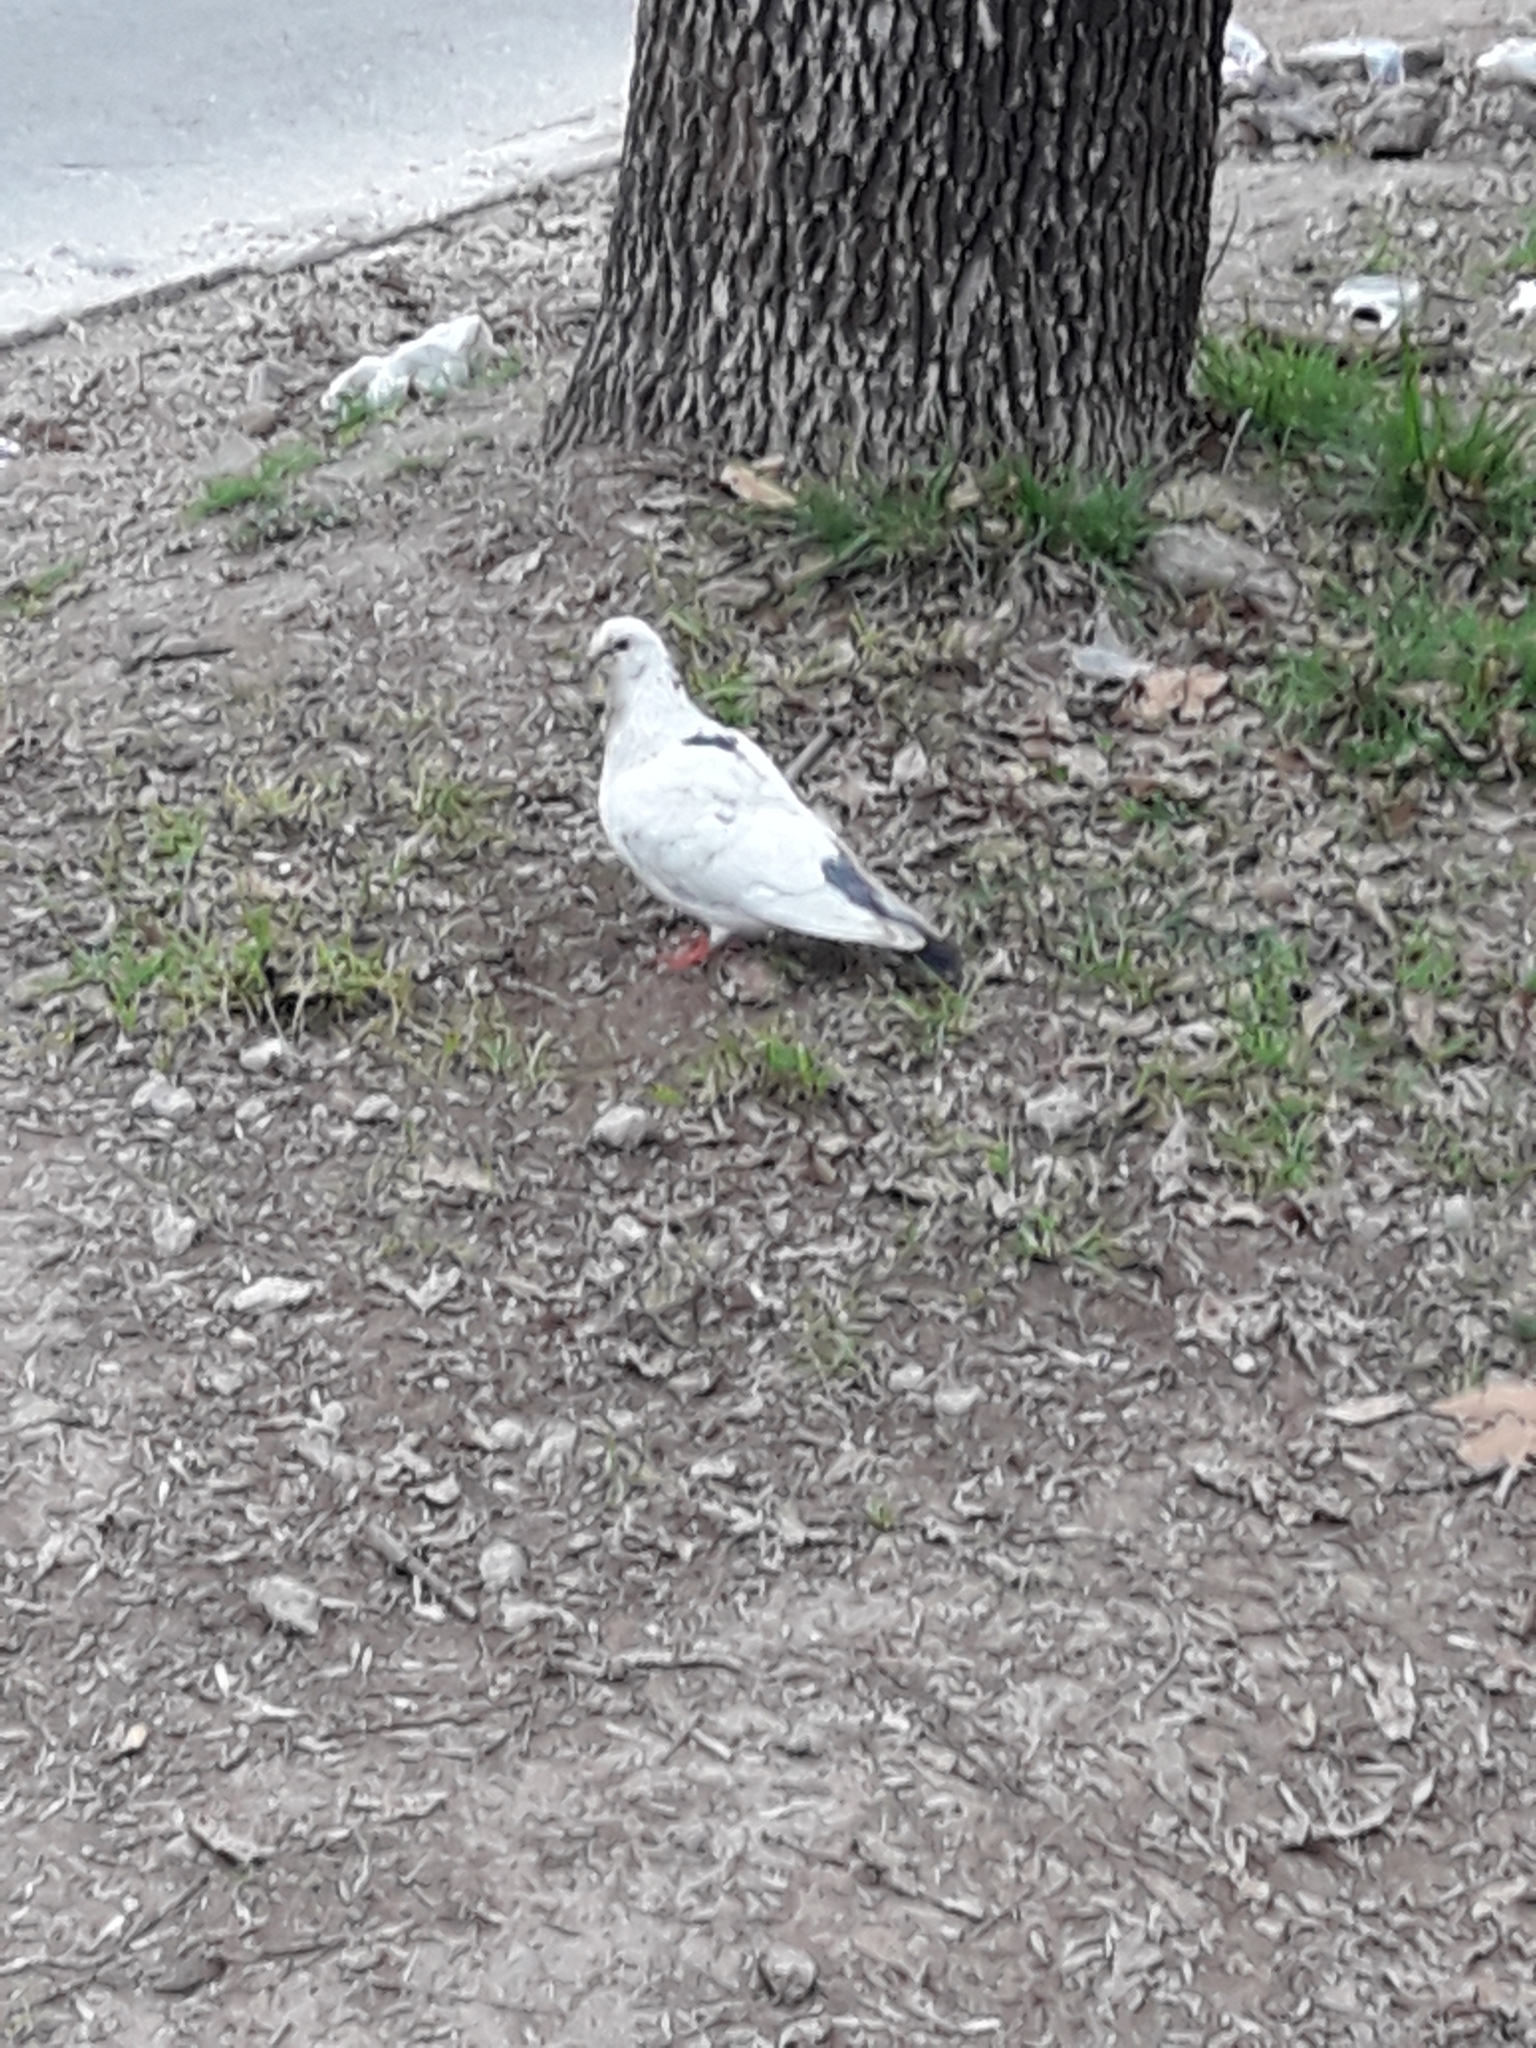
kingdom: Animalia
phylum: Chordata
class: Aves
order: Columbiformes
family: Columbidae
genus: Columba
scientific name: Columba livia
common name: Rock pigeon
